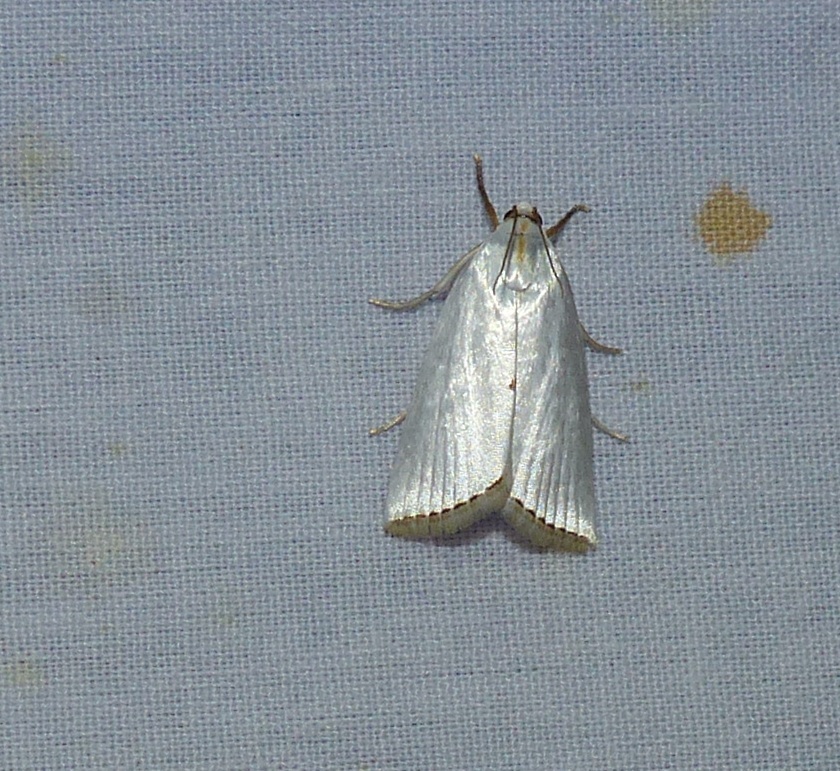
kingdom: Animalia
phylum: Arthropoda
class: Insecta
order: Lepidoptera
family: Crambidae
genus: Argyria
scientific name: Argyria nivalis
